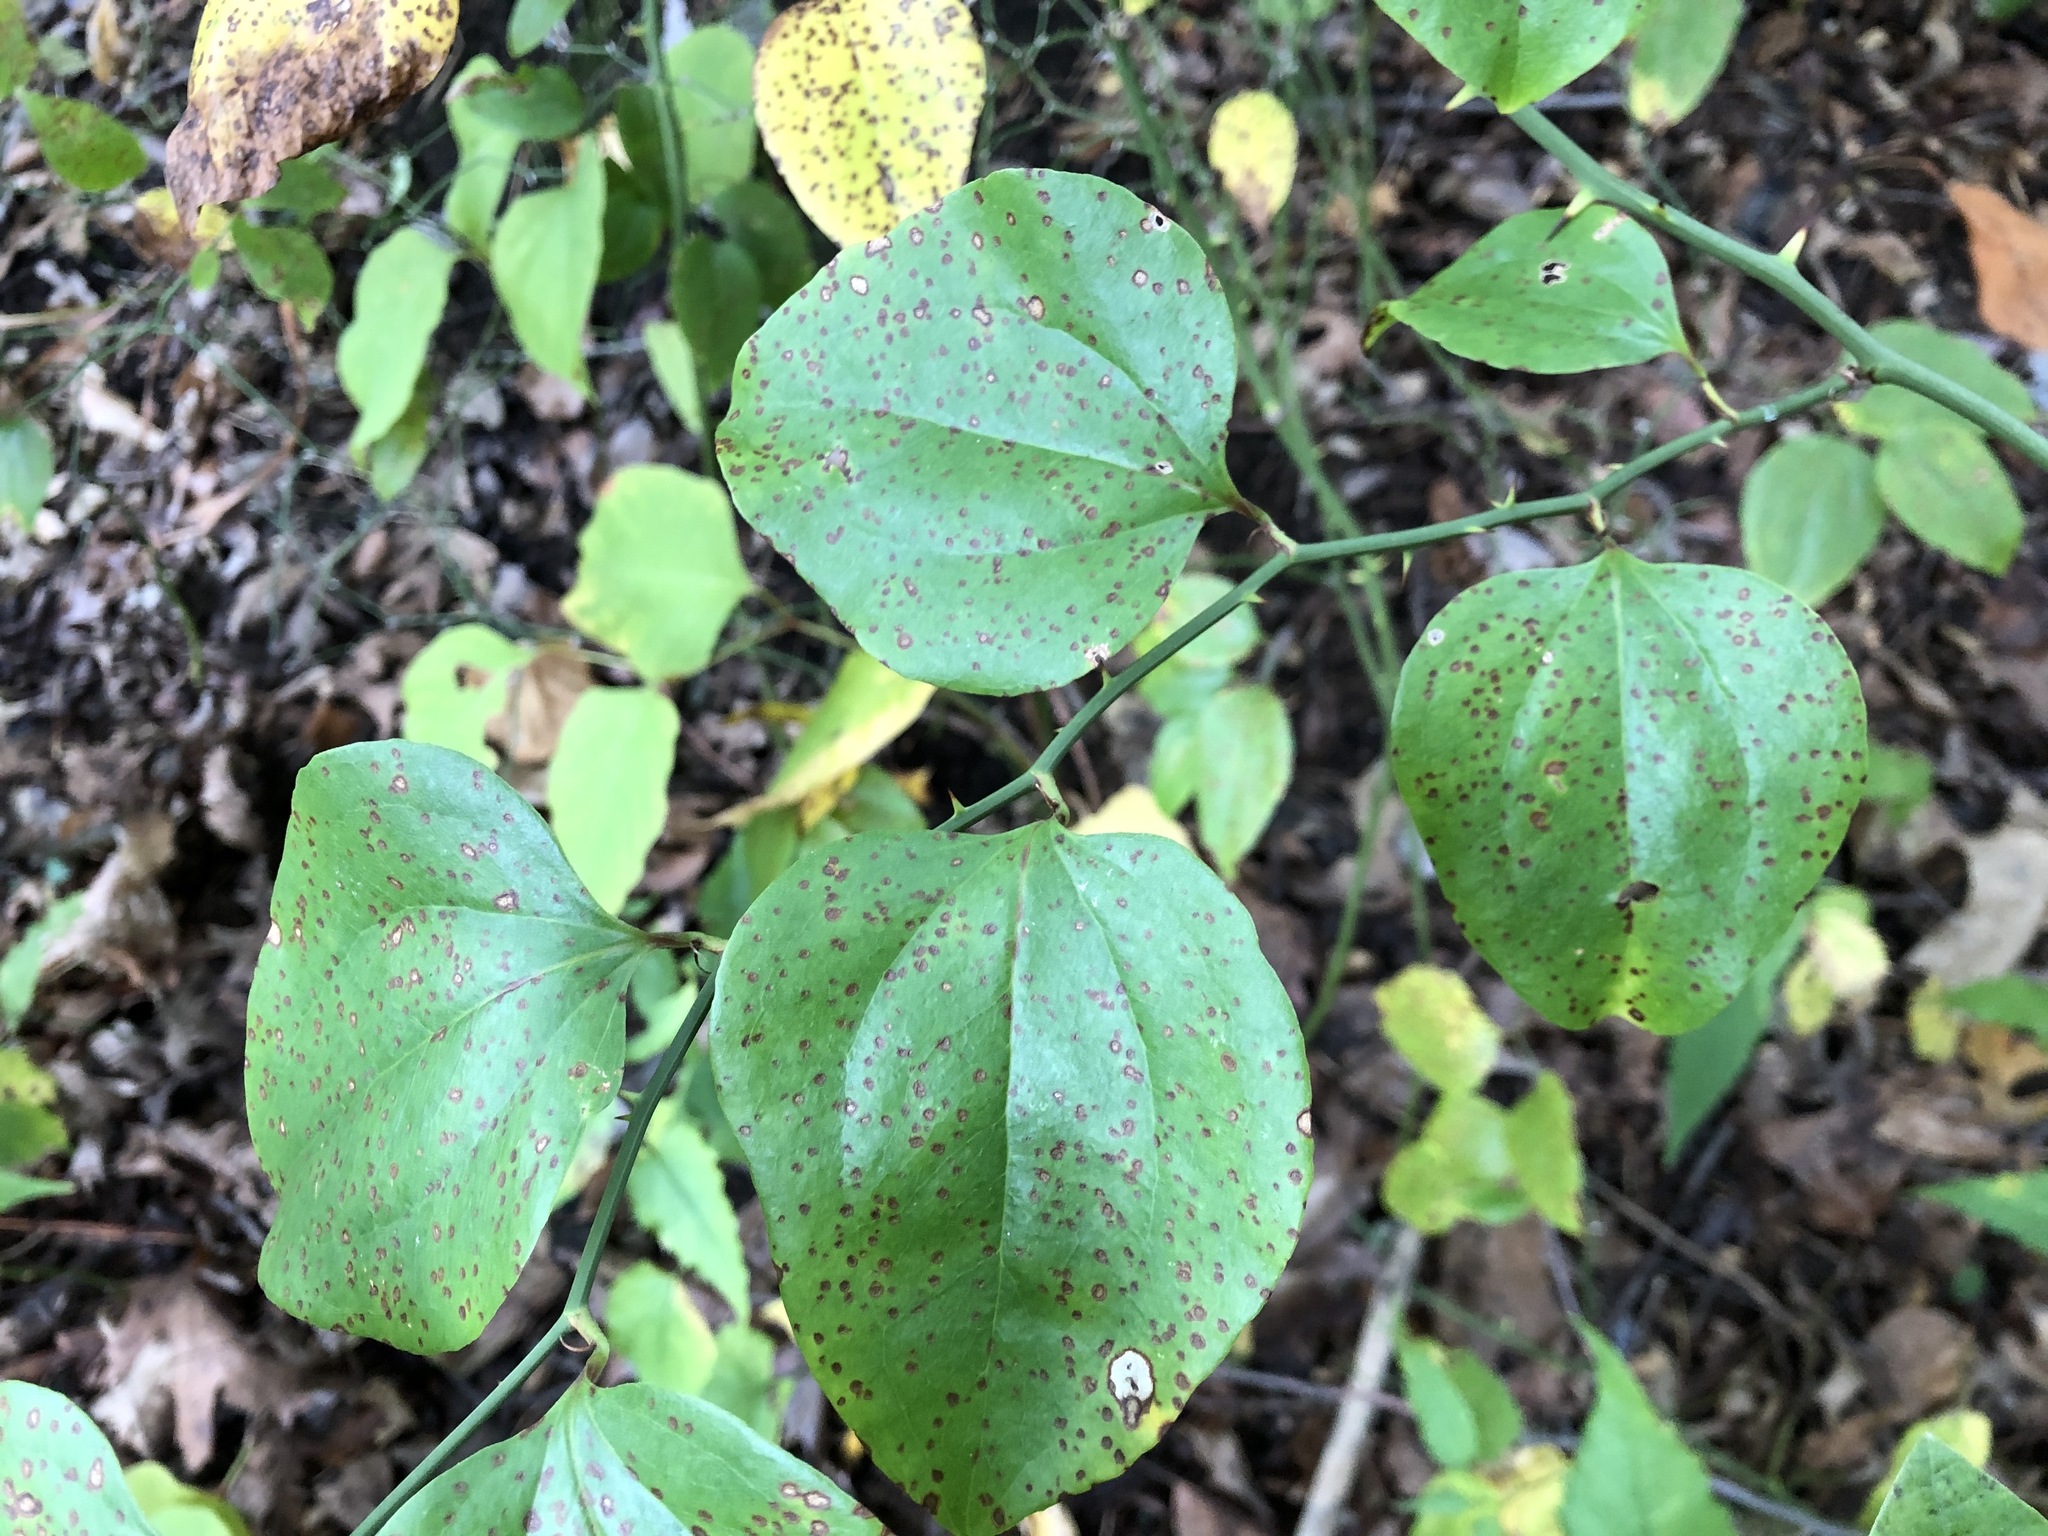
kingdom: Plantae
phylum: Tracheophyta
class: Liliopsida
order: Liliales
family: Smilacaceae
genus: Smilax
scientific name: Smilax rotundifolia
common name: Bullbriar
